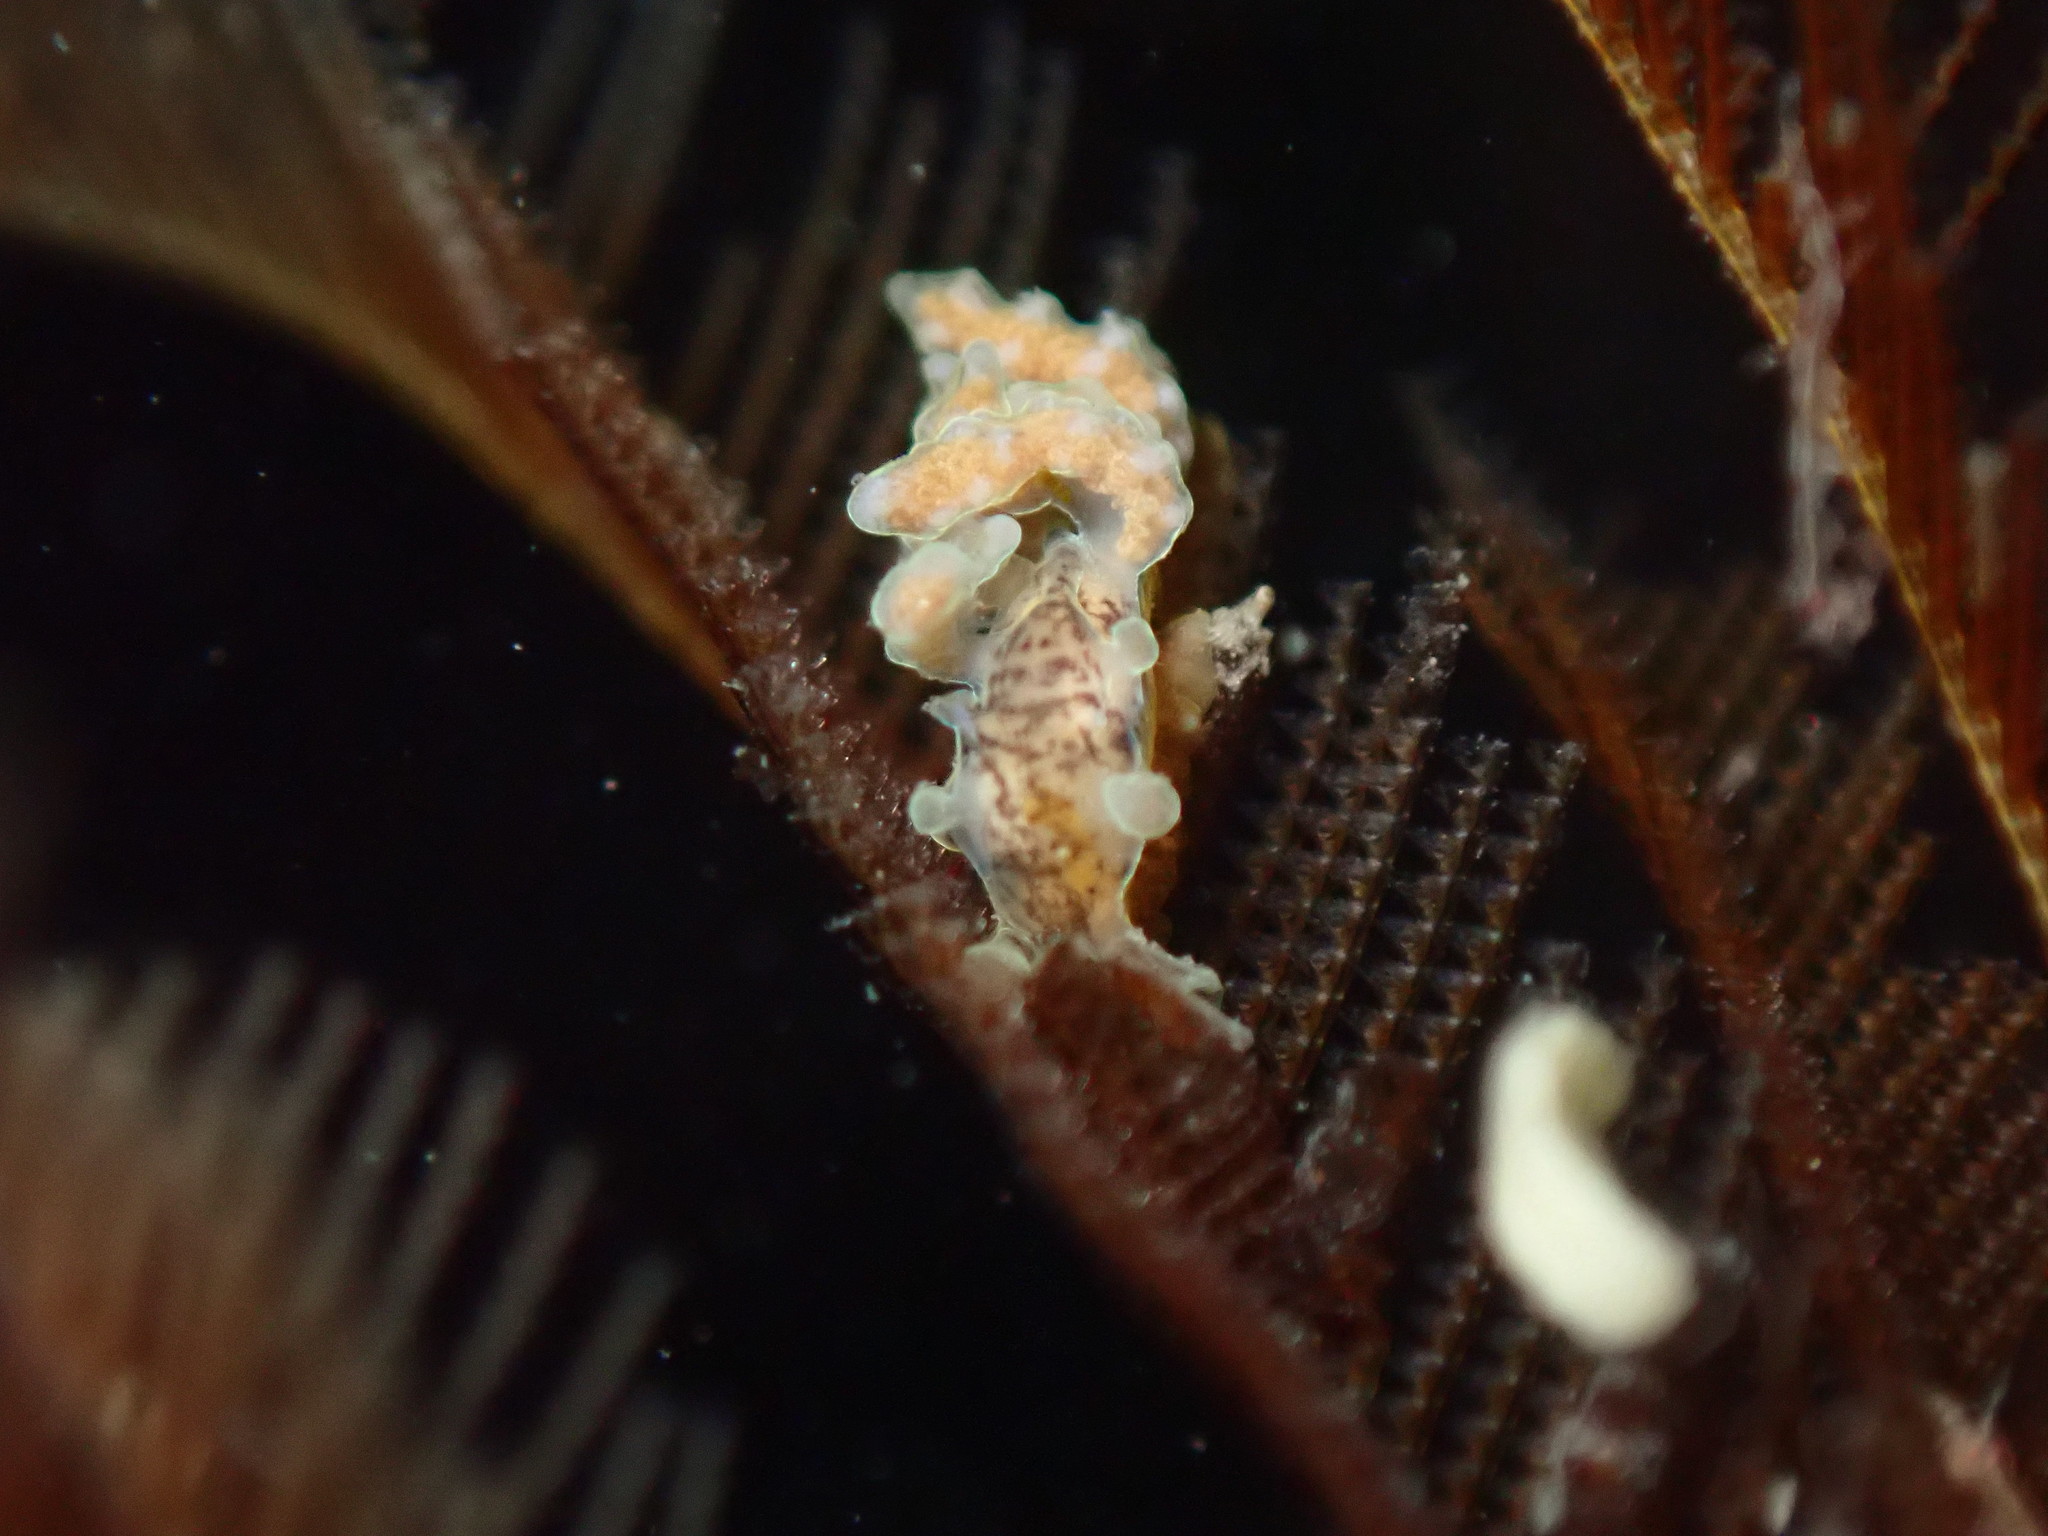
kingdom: Animalia
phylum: Mollusca
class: Gastropoda
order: Nudibranchia
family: Dotidae
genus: Doto
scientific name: Doto columbiana
